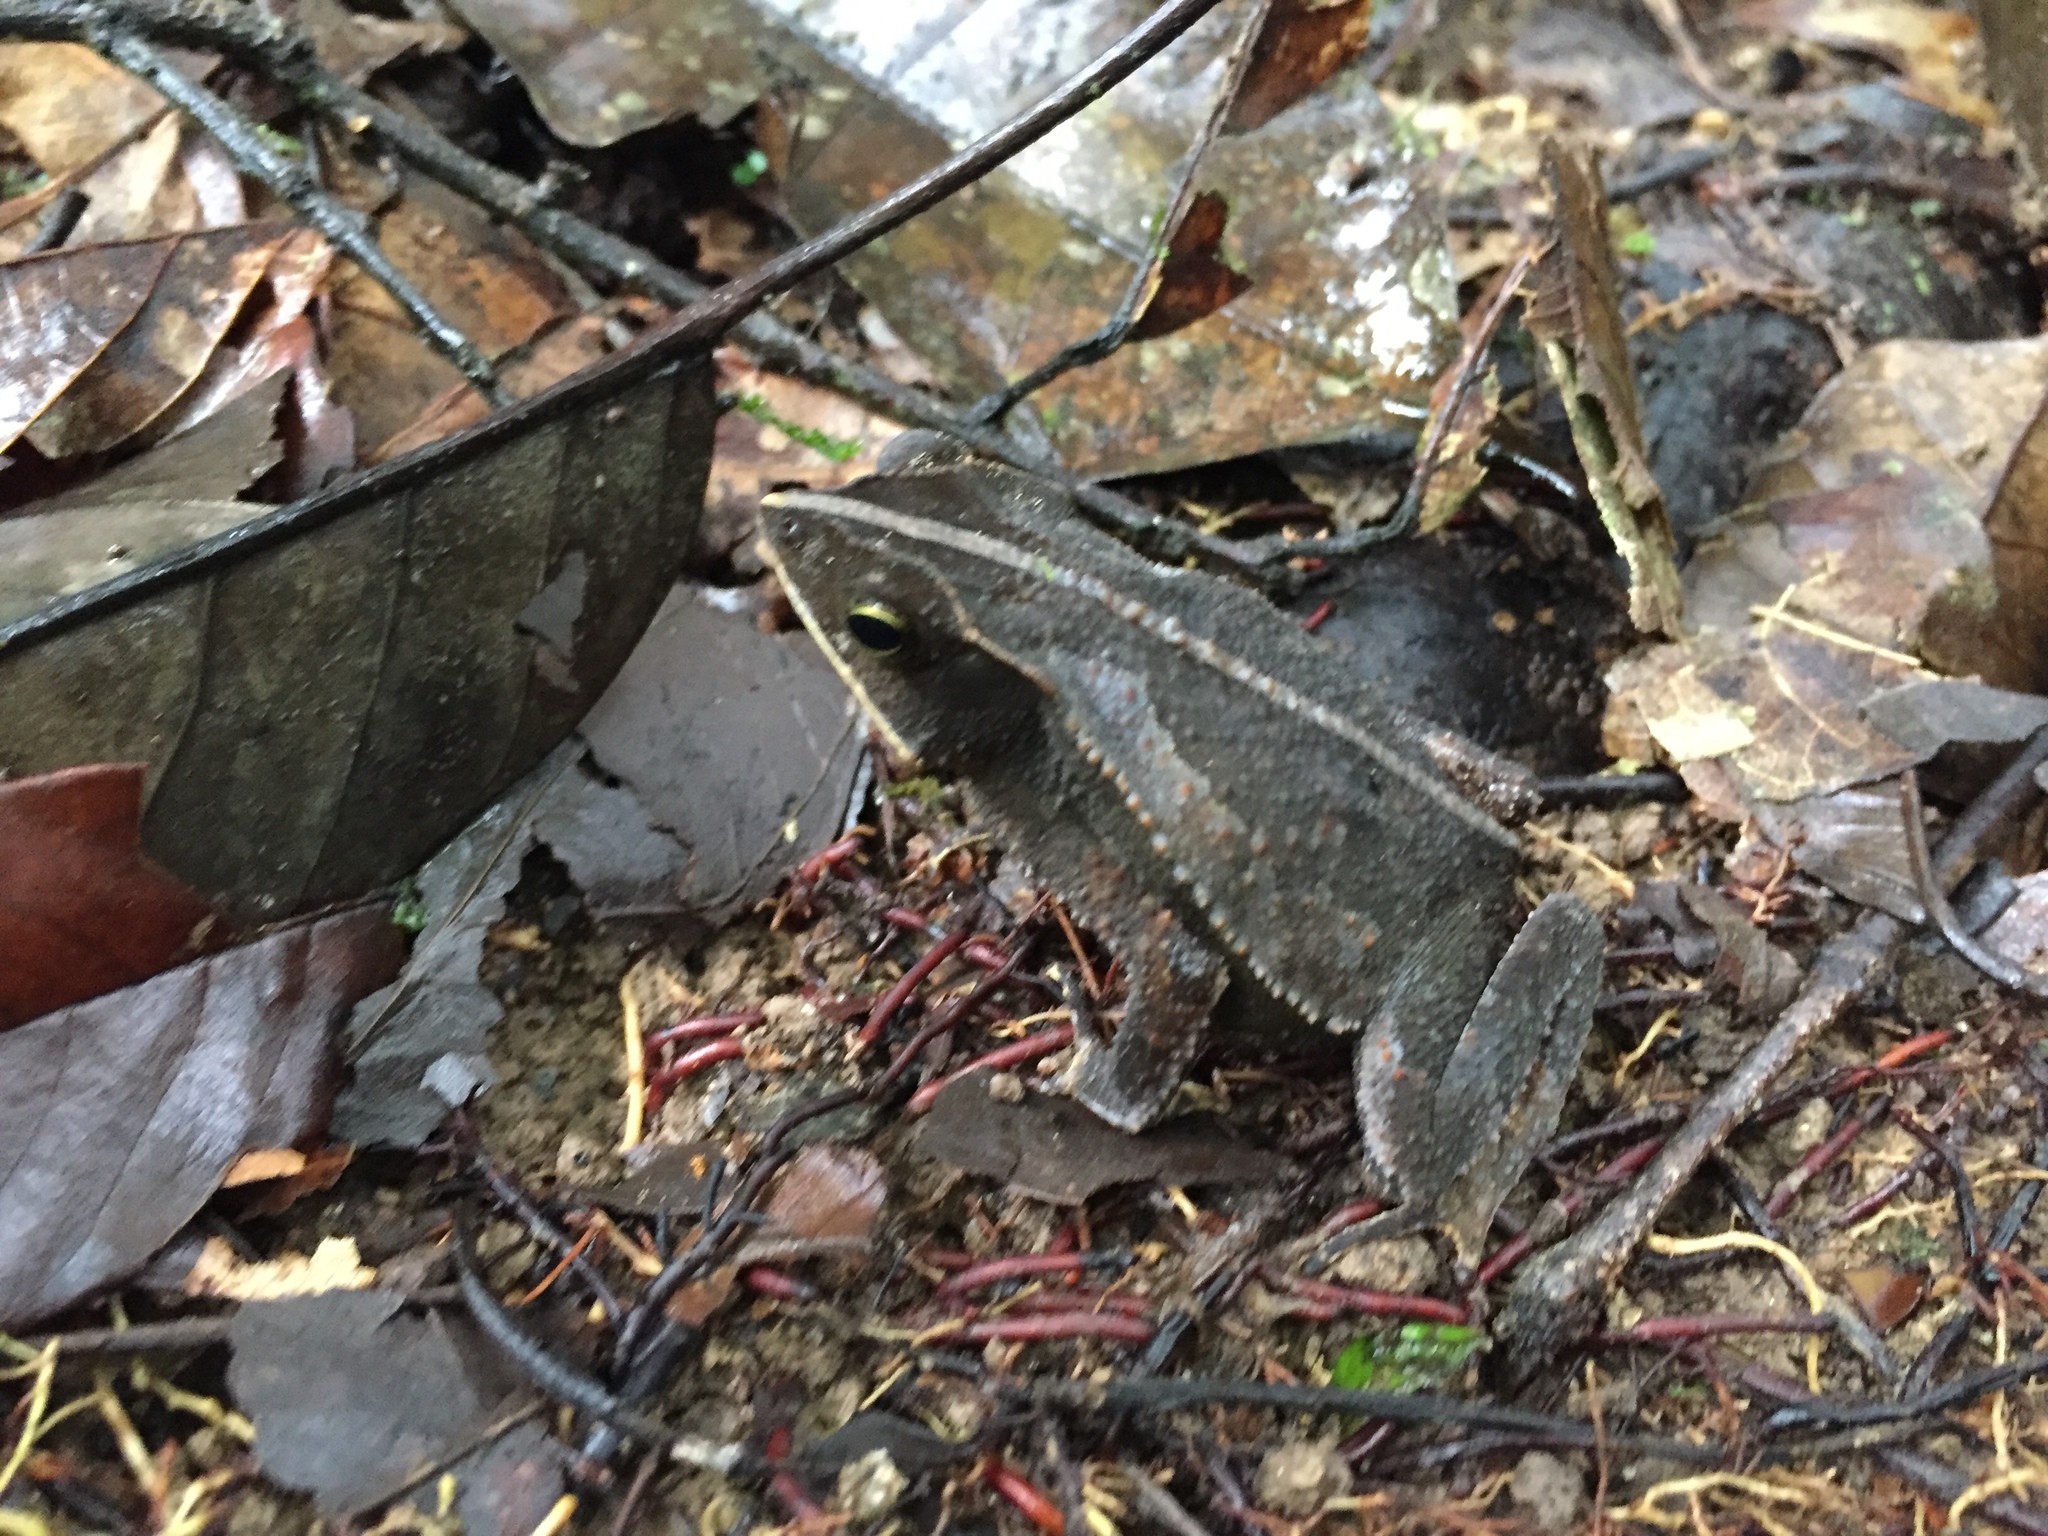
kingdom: Animalia
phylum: Chordata
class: Amphibia
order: Anura
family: Bufonidae
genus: Rhinella
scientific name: Rhinella margaritifera
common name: Mitred toad
